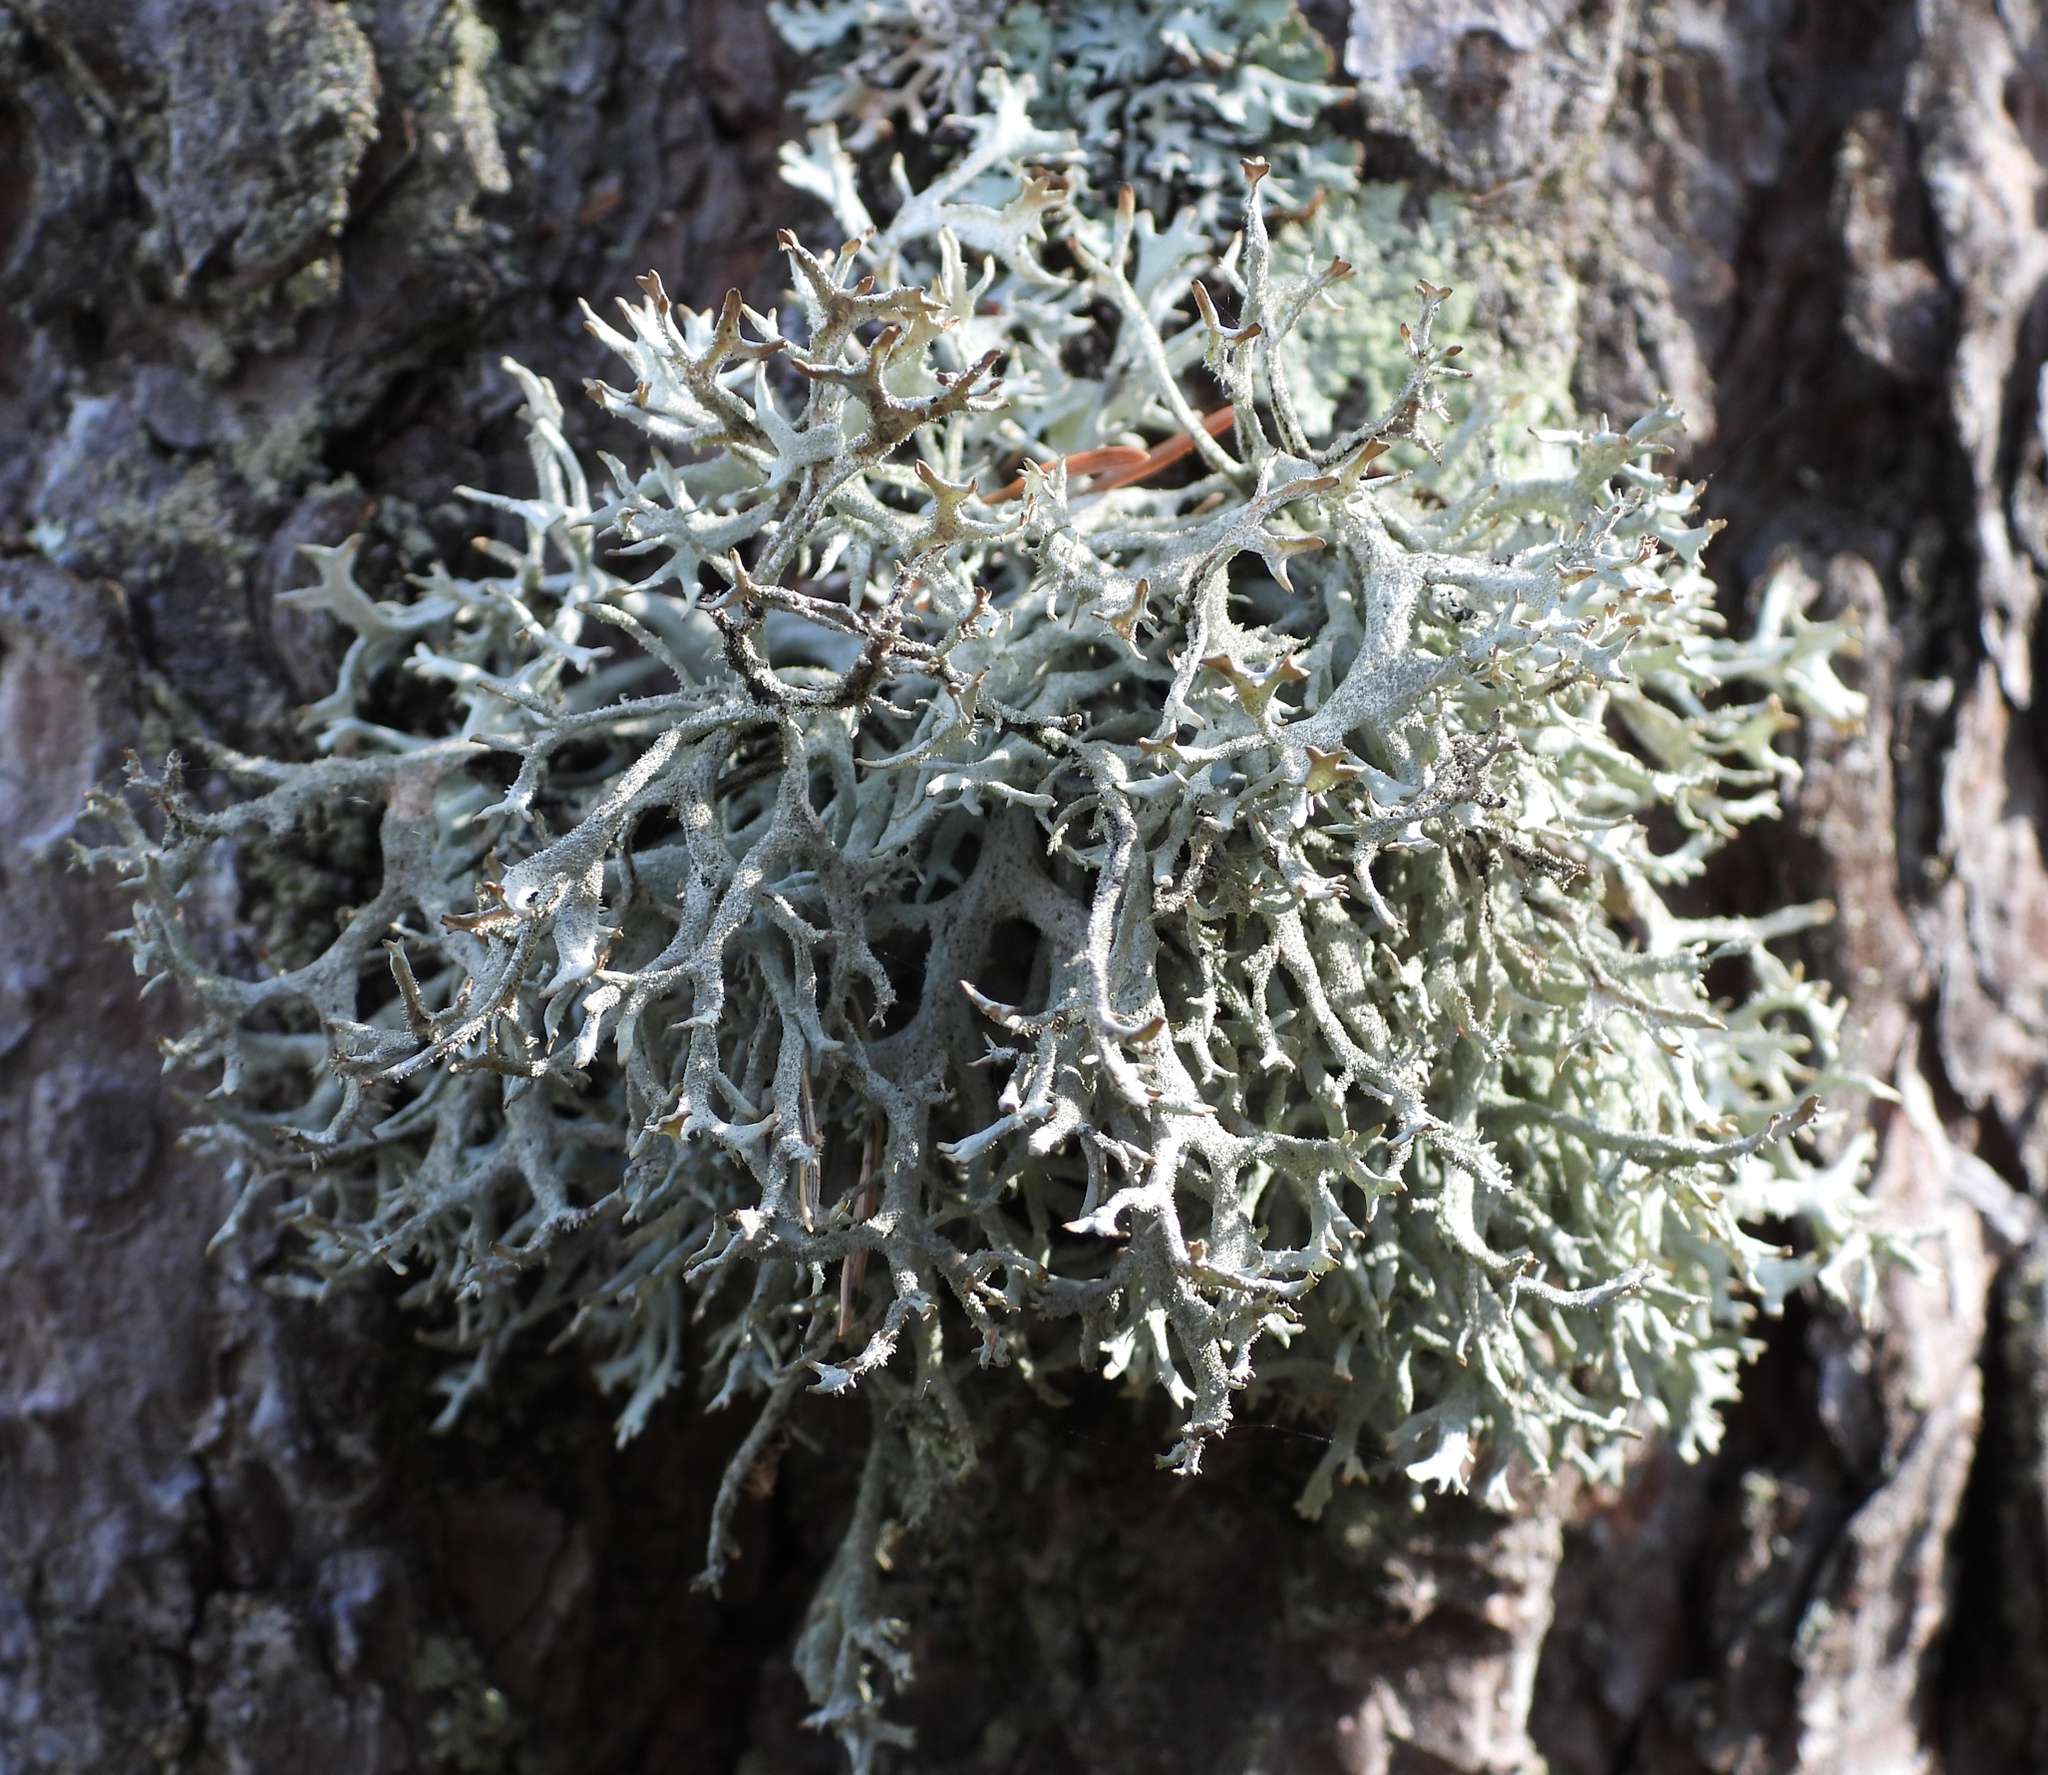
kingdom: Fungi
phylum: Ascomycota
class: Lecanoromycetes
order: Lecanorales
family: Parmeliaceae
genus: Pseudevernia
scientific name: Pseudevernia furfuracea
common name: Tree moss
